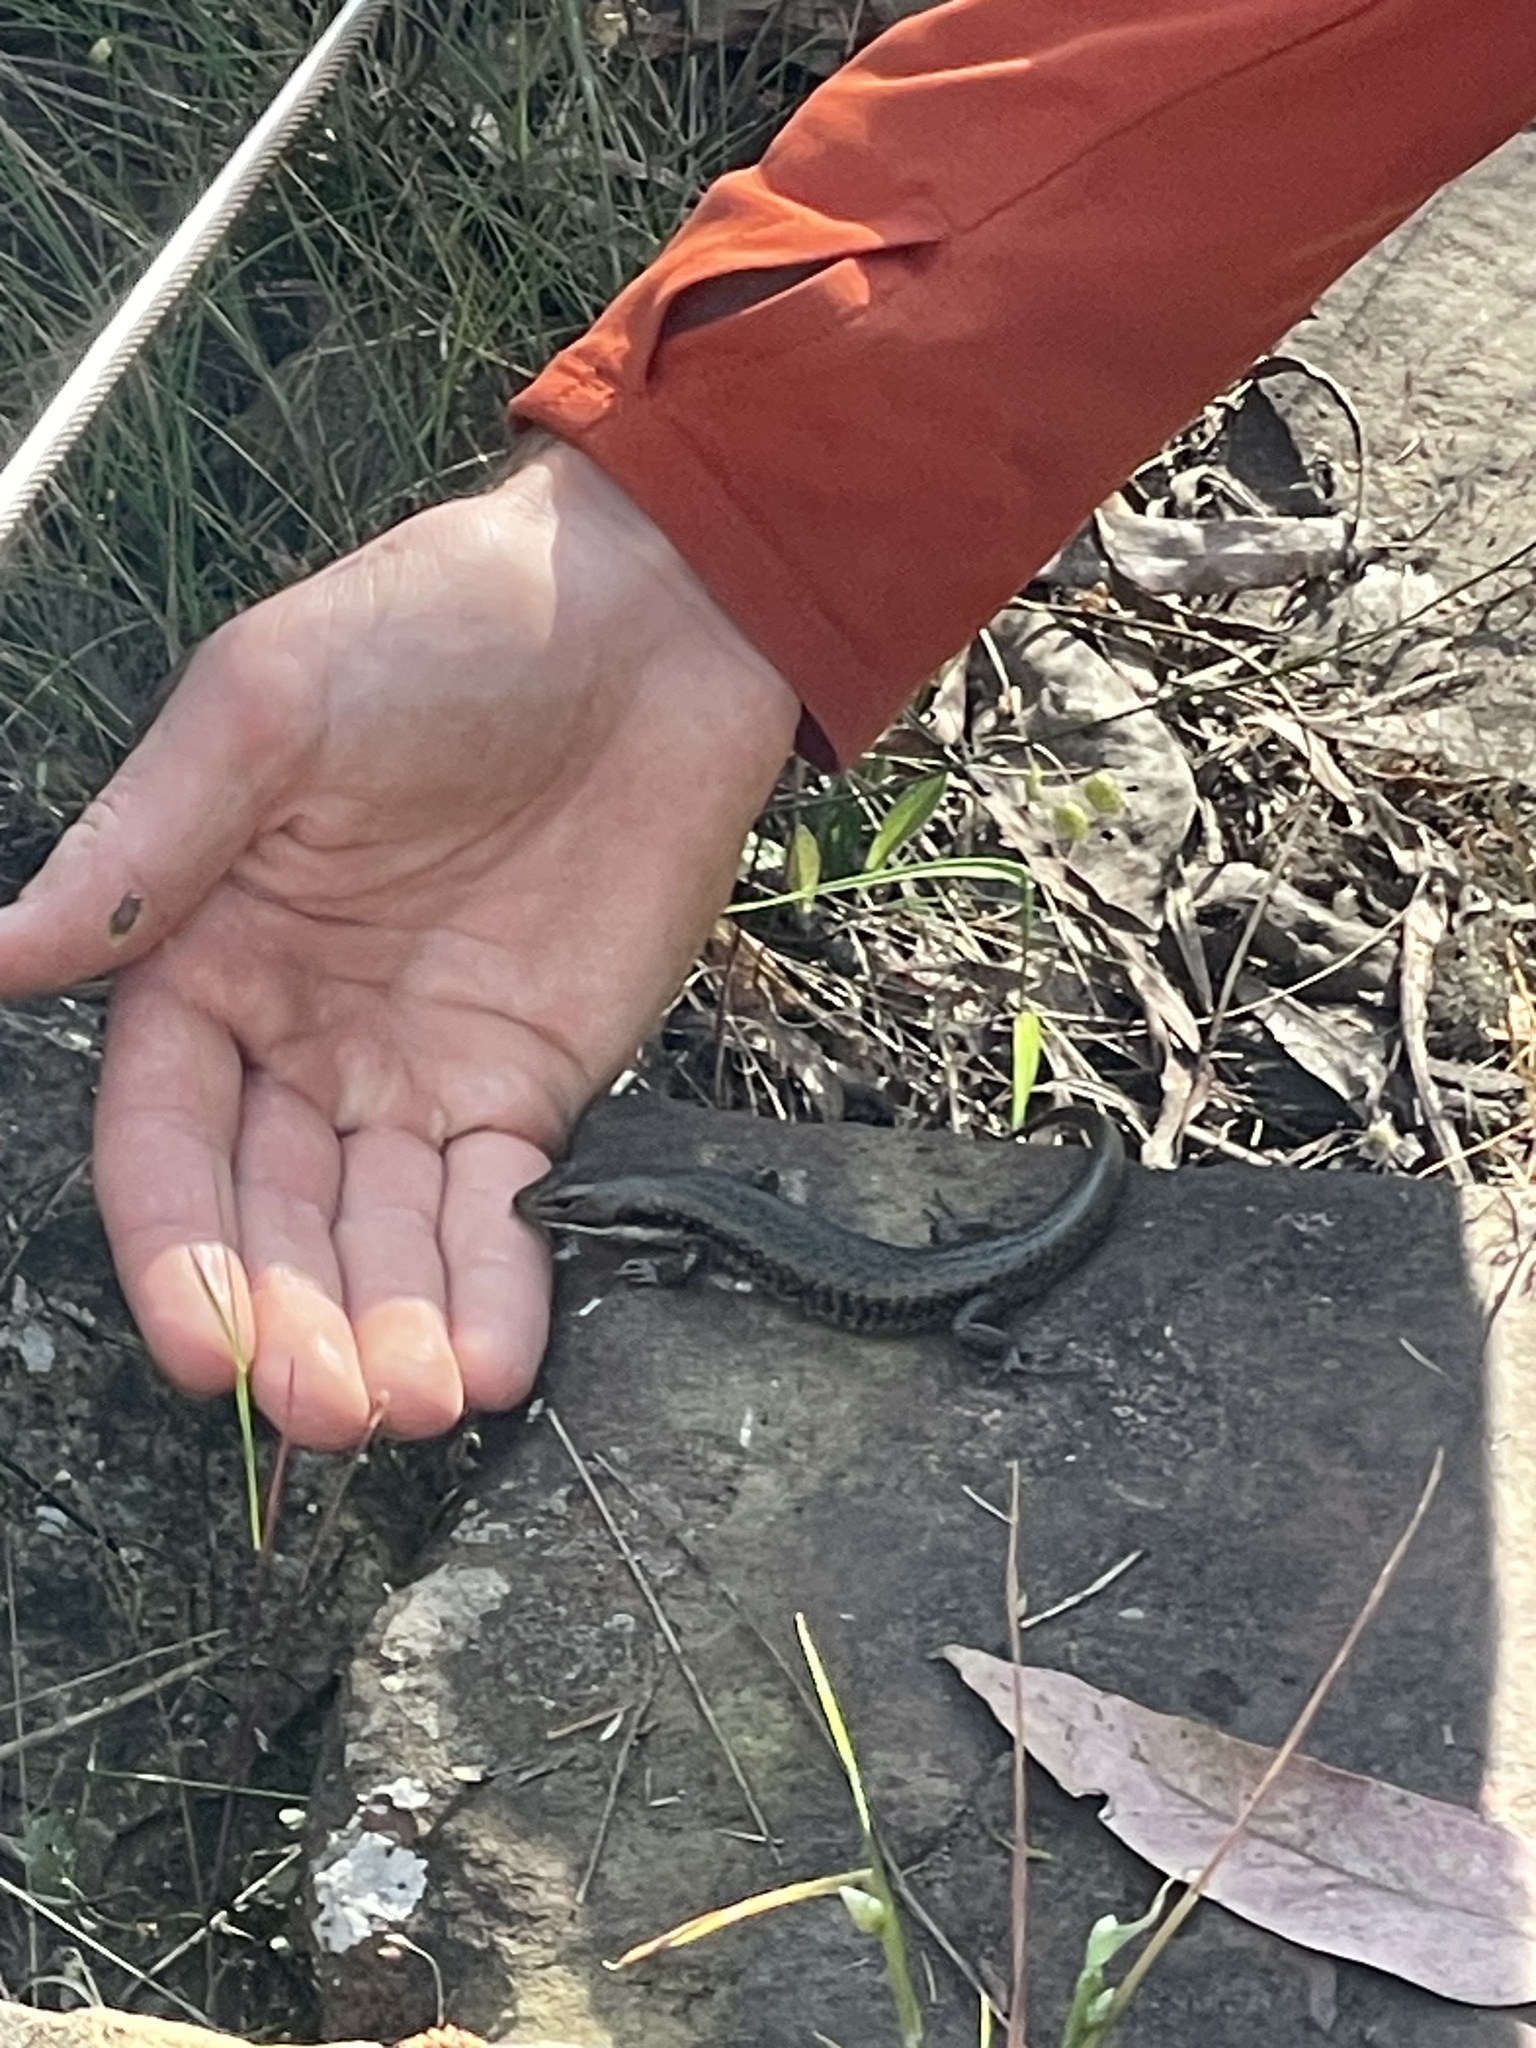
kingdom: Animalia
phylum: Chordata
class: Squamata
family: Scincidae
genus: Eulamprus
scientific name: Eulamprus tympanum
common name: Cool-temperate water-skink
